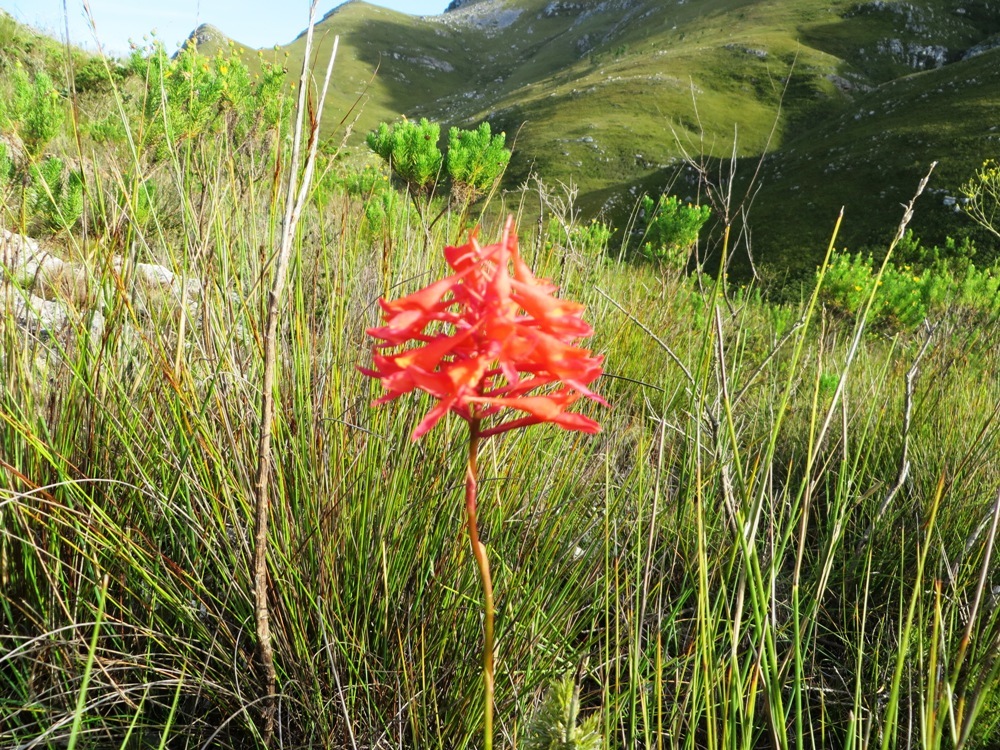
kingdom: Plantae
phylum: Tracheophyta
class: Liliopsida
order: Asparagales
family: Orchidaceae
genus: Disa
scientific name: Disa ferruginea
